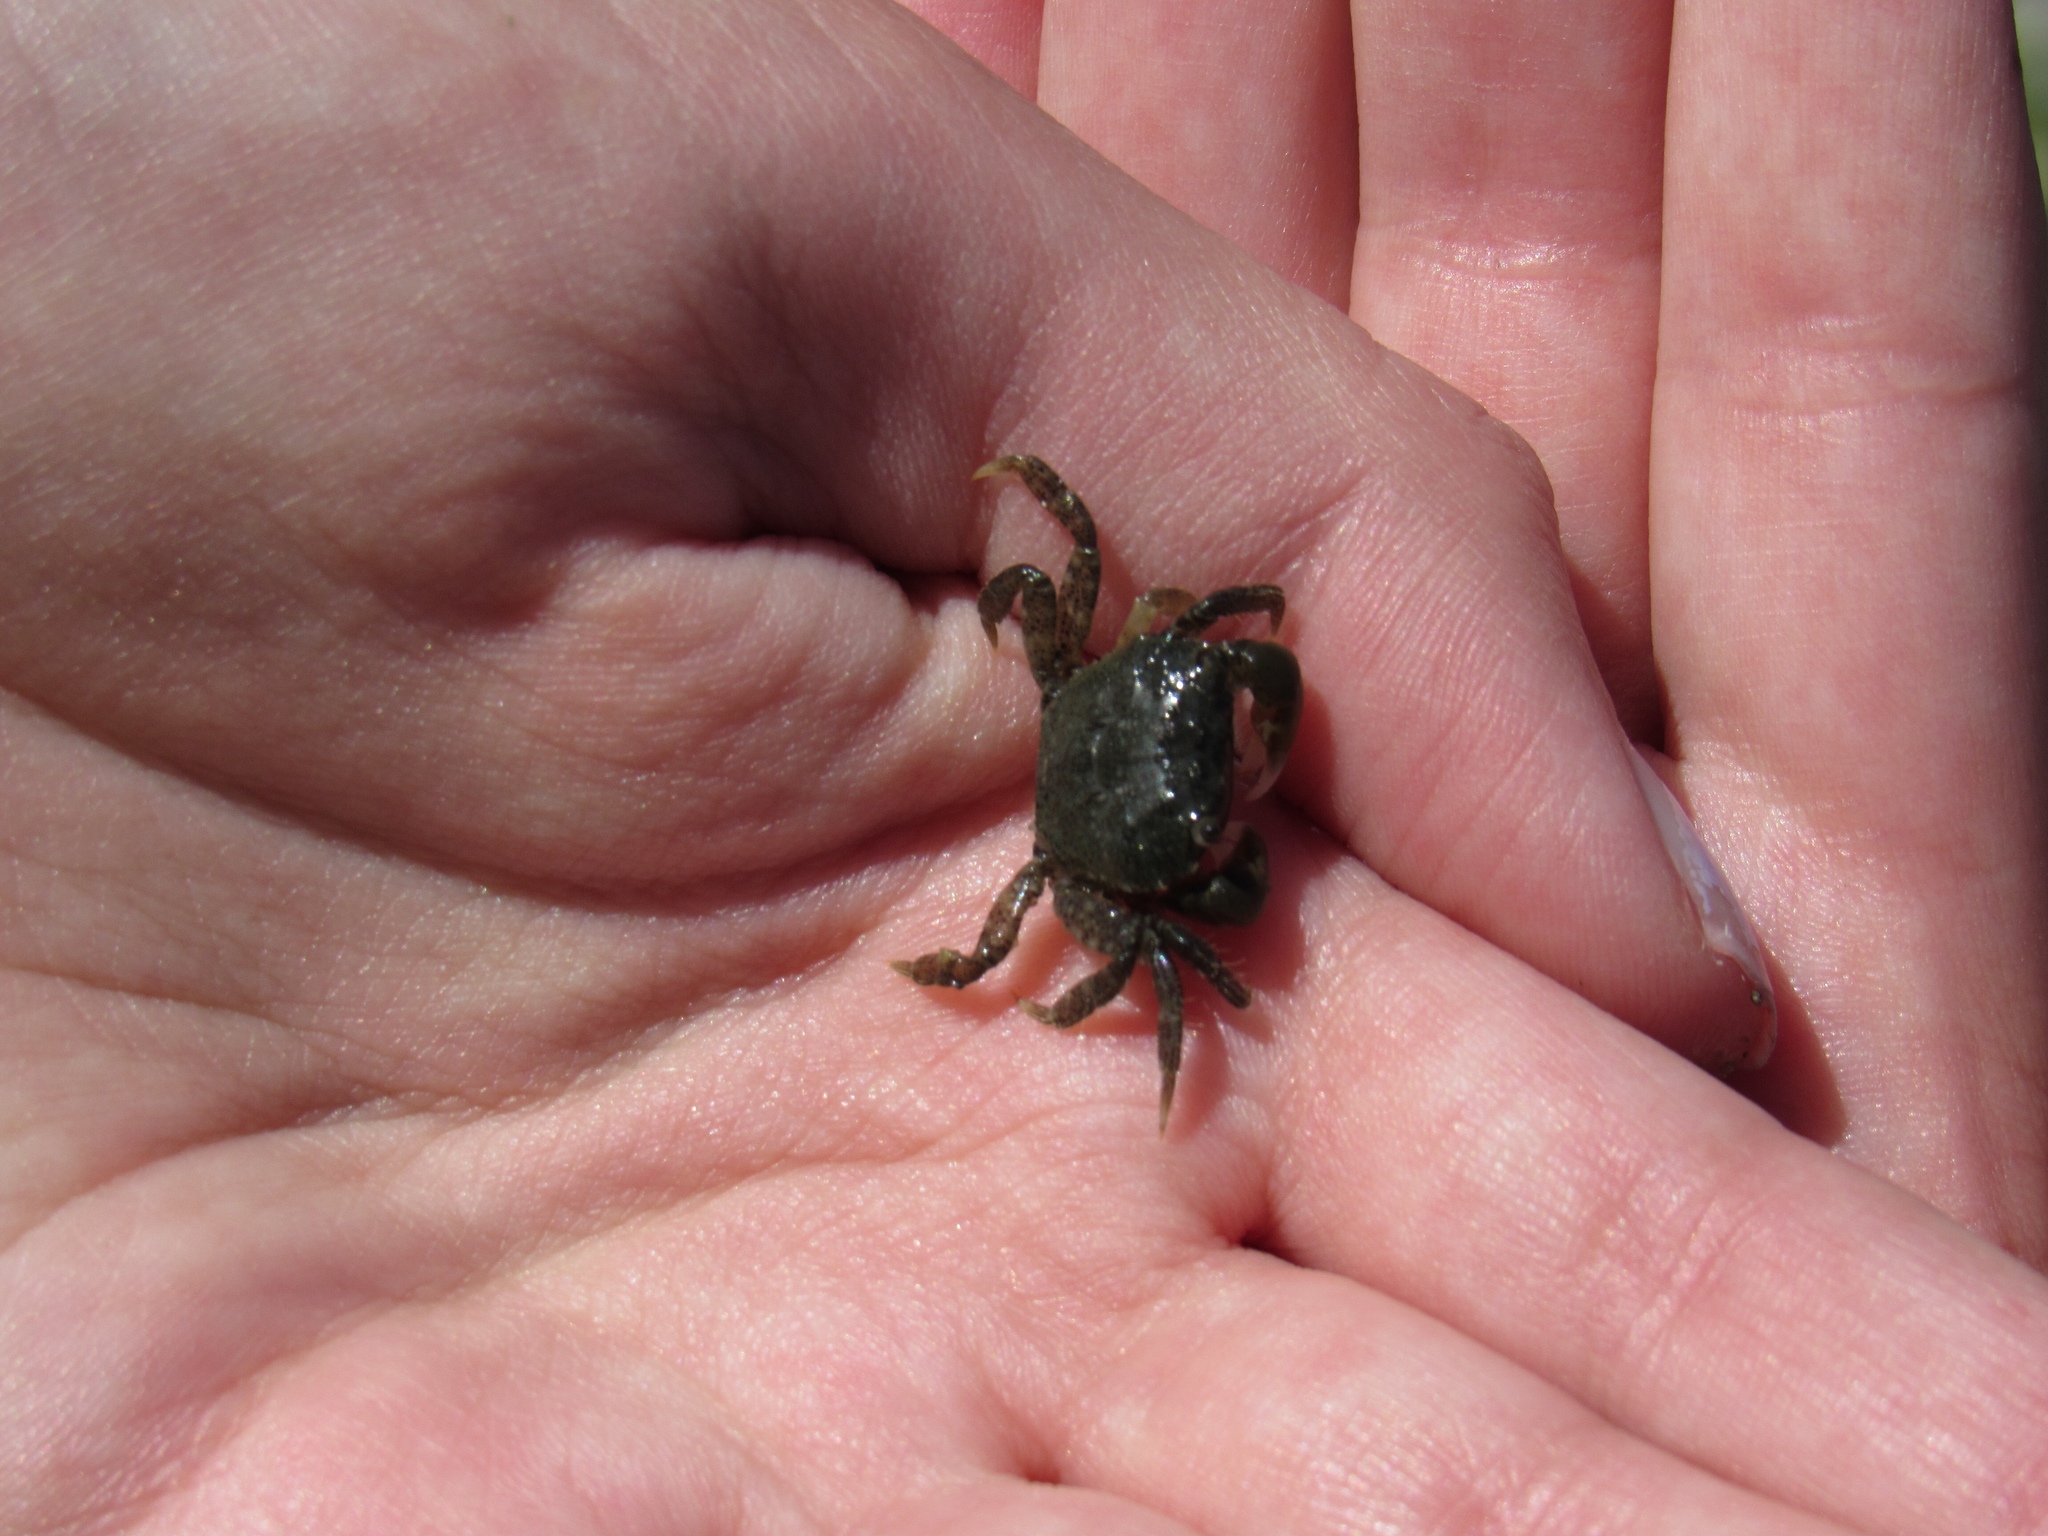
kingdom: Animalia
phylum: Arthropoda
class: Malacostraca
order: Decapoda
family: Varunidae
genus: Hemigrapsus
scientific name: Hemigrapsus oregonensis
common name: Yellow shore crab
